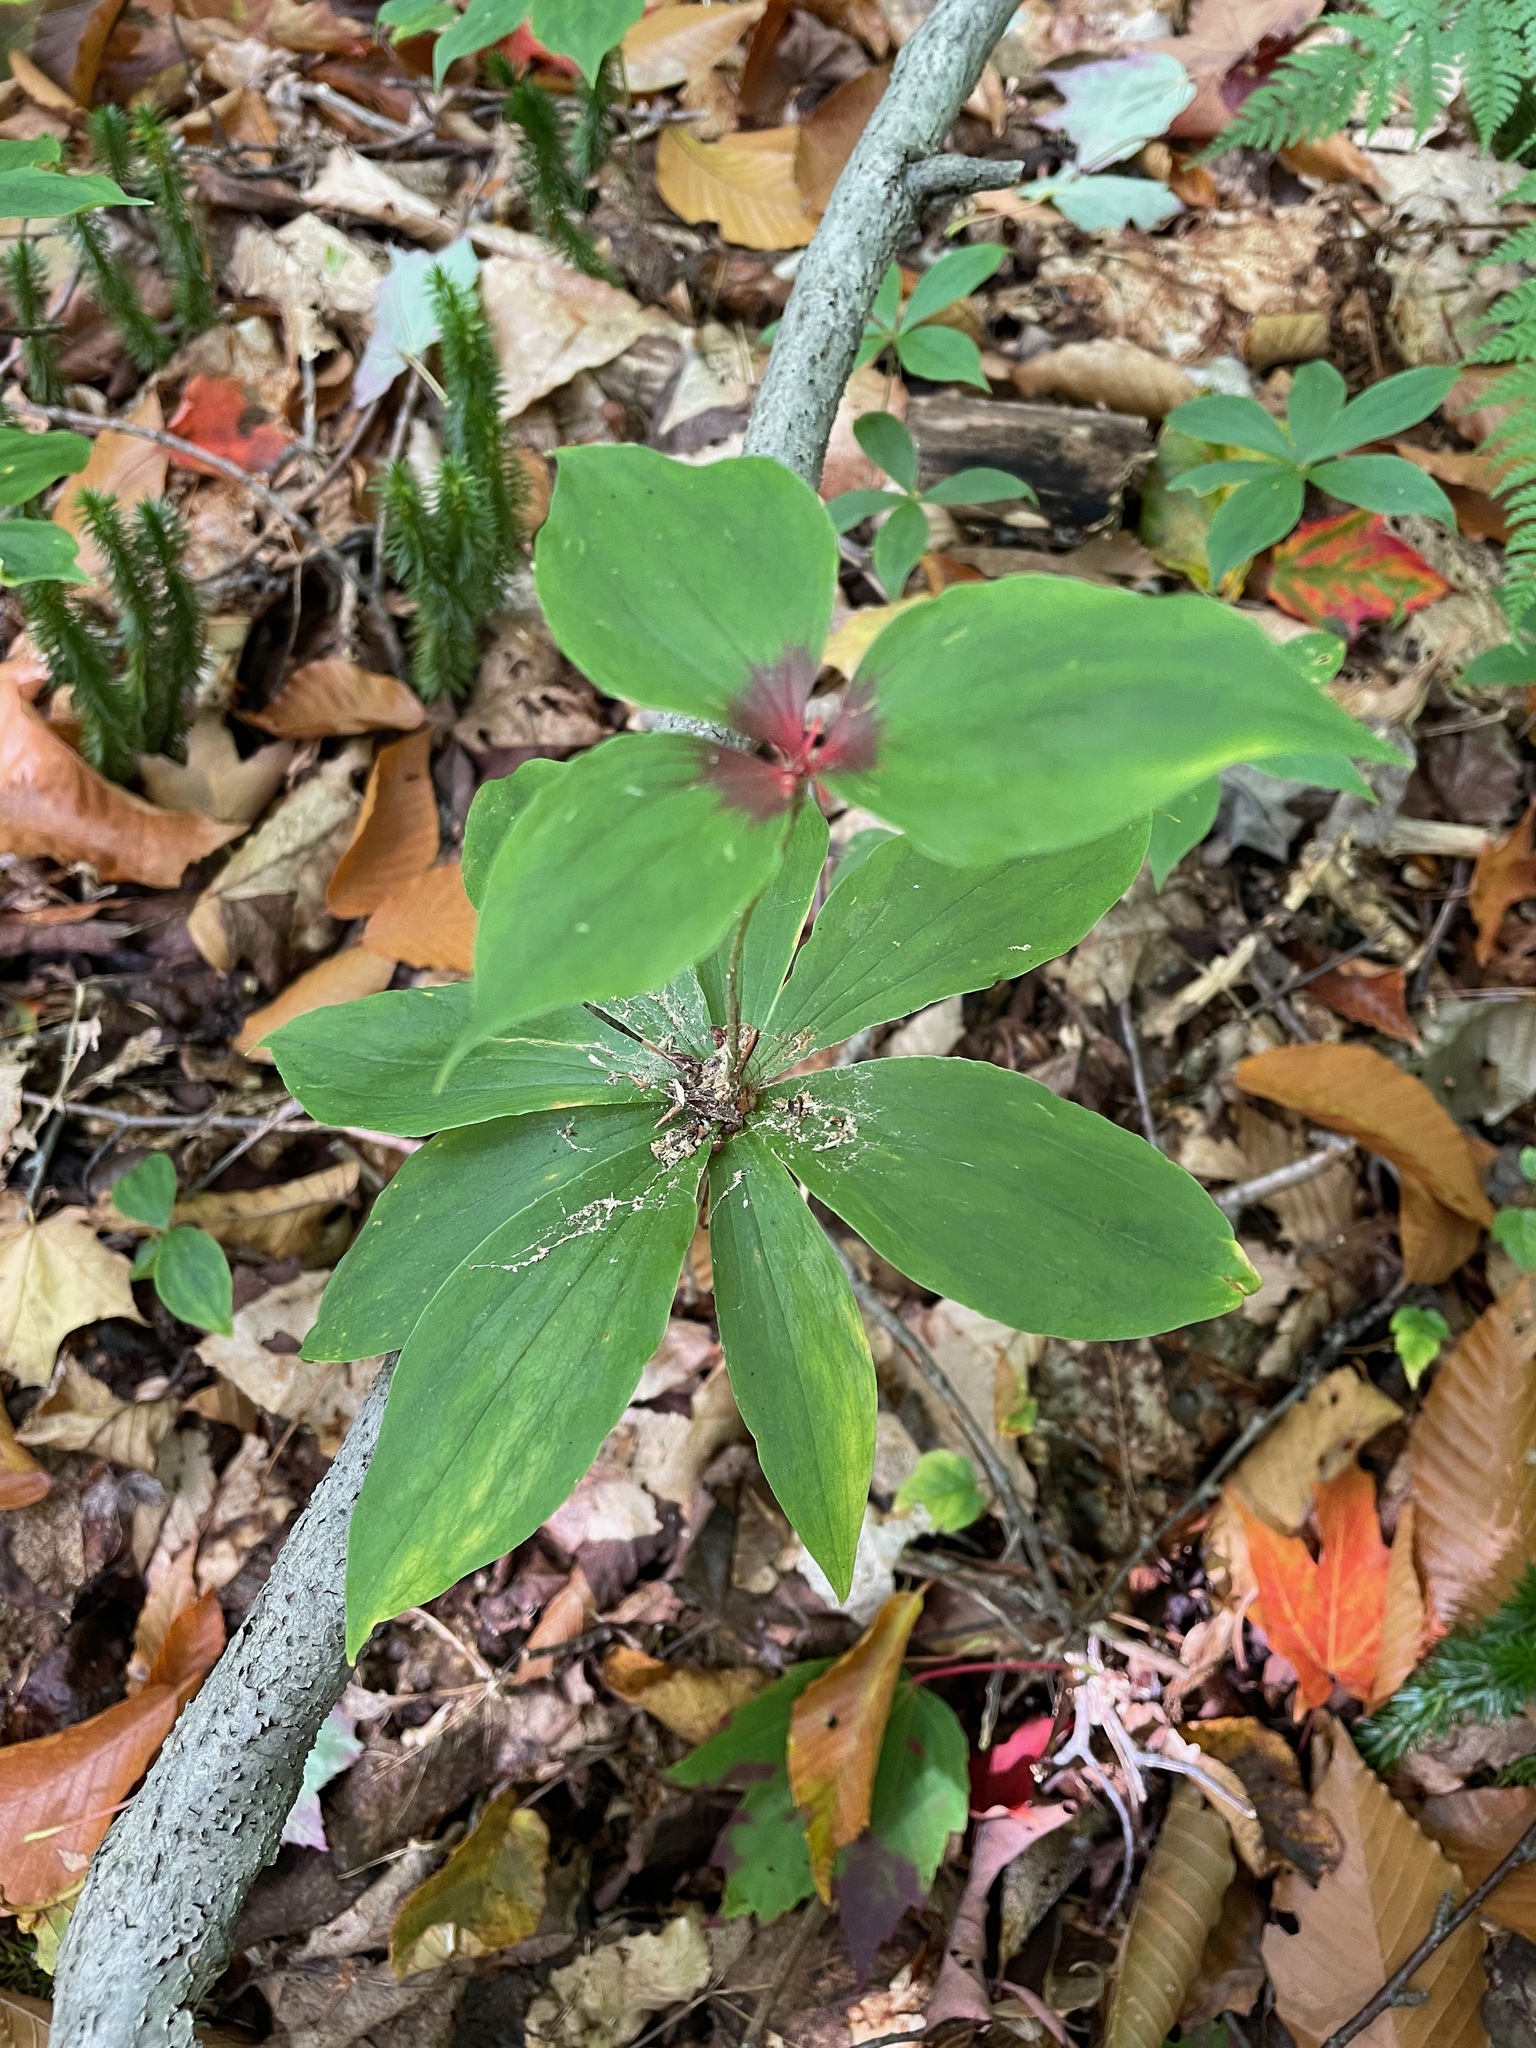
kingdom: Plantae
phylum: Tracheophyta
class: Liliopsida
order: Liliales
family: Liliaceae
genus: Medeola
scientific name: Medeola virginiana
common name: Indian cucumber-root
